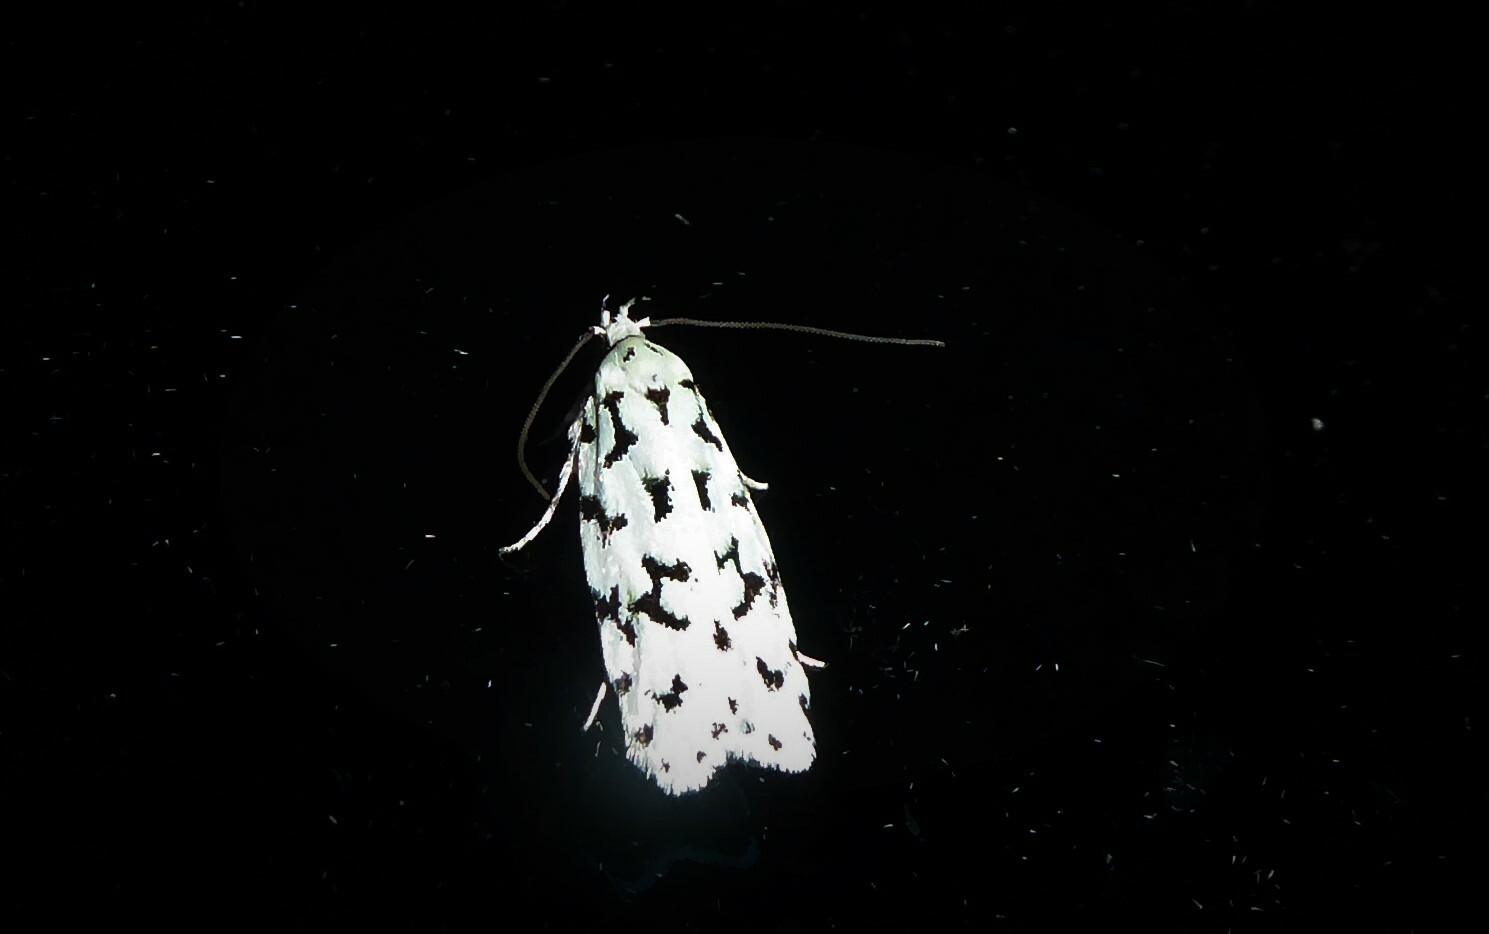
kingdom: Animalia
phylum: Arthropoda
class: Insecta
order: Lepidoptera
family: Oecophoridae
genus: Izatha
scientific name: Izatha huttoni
